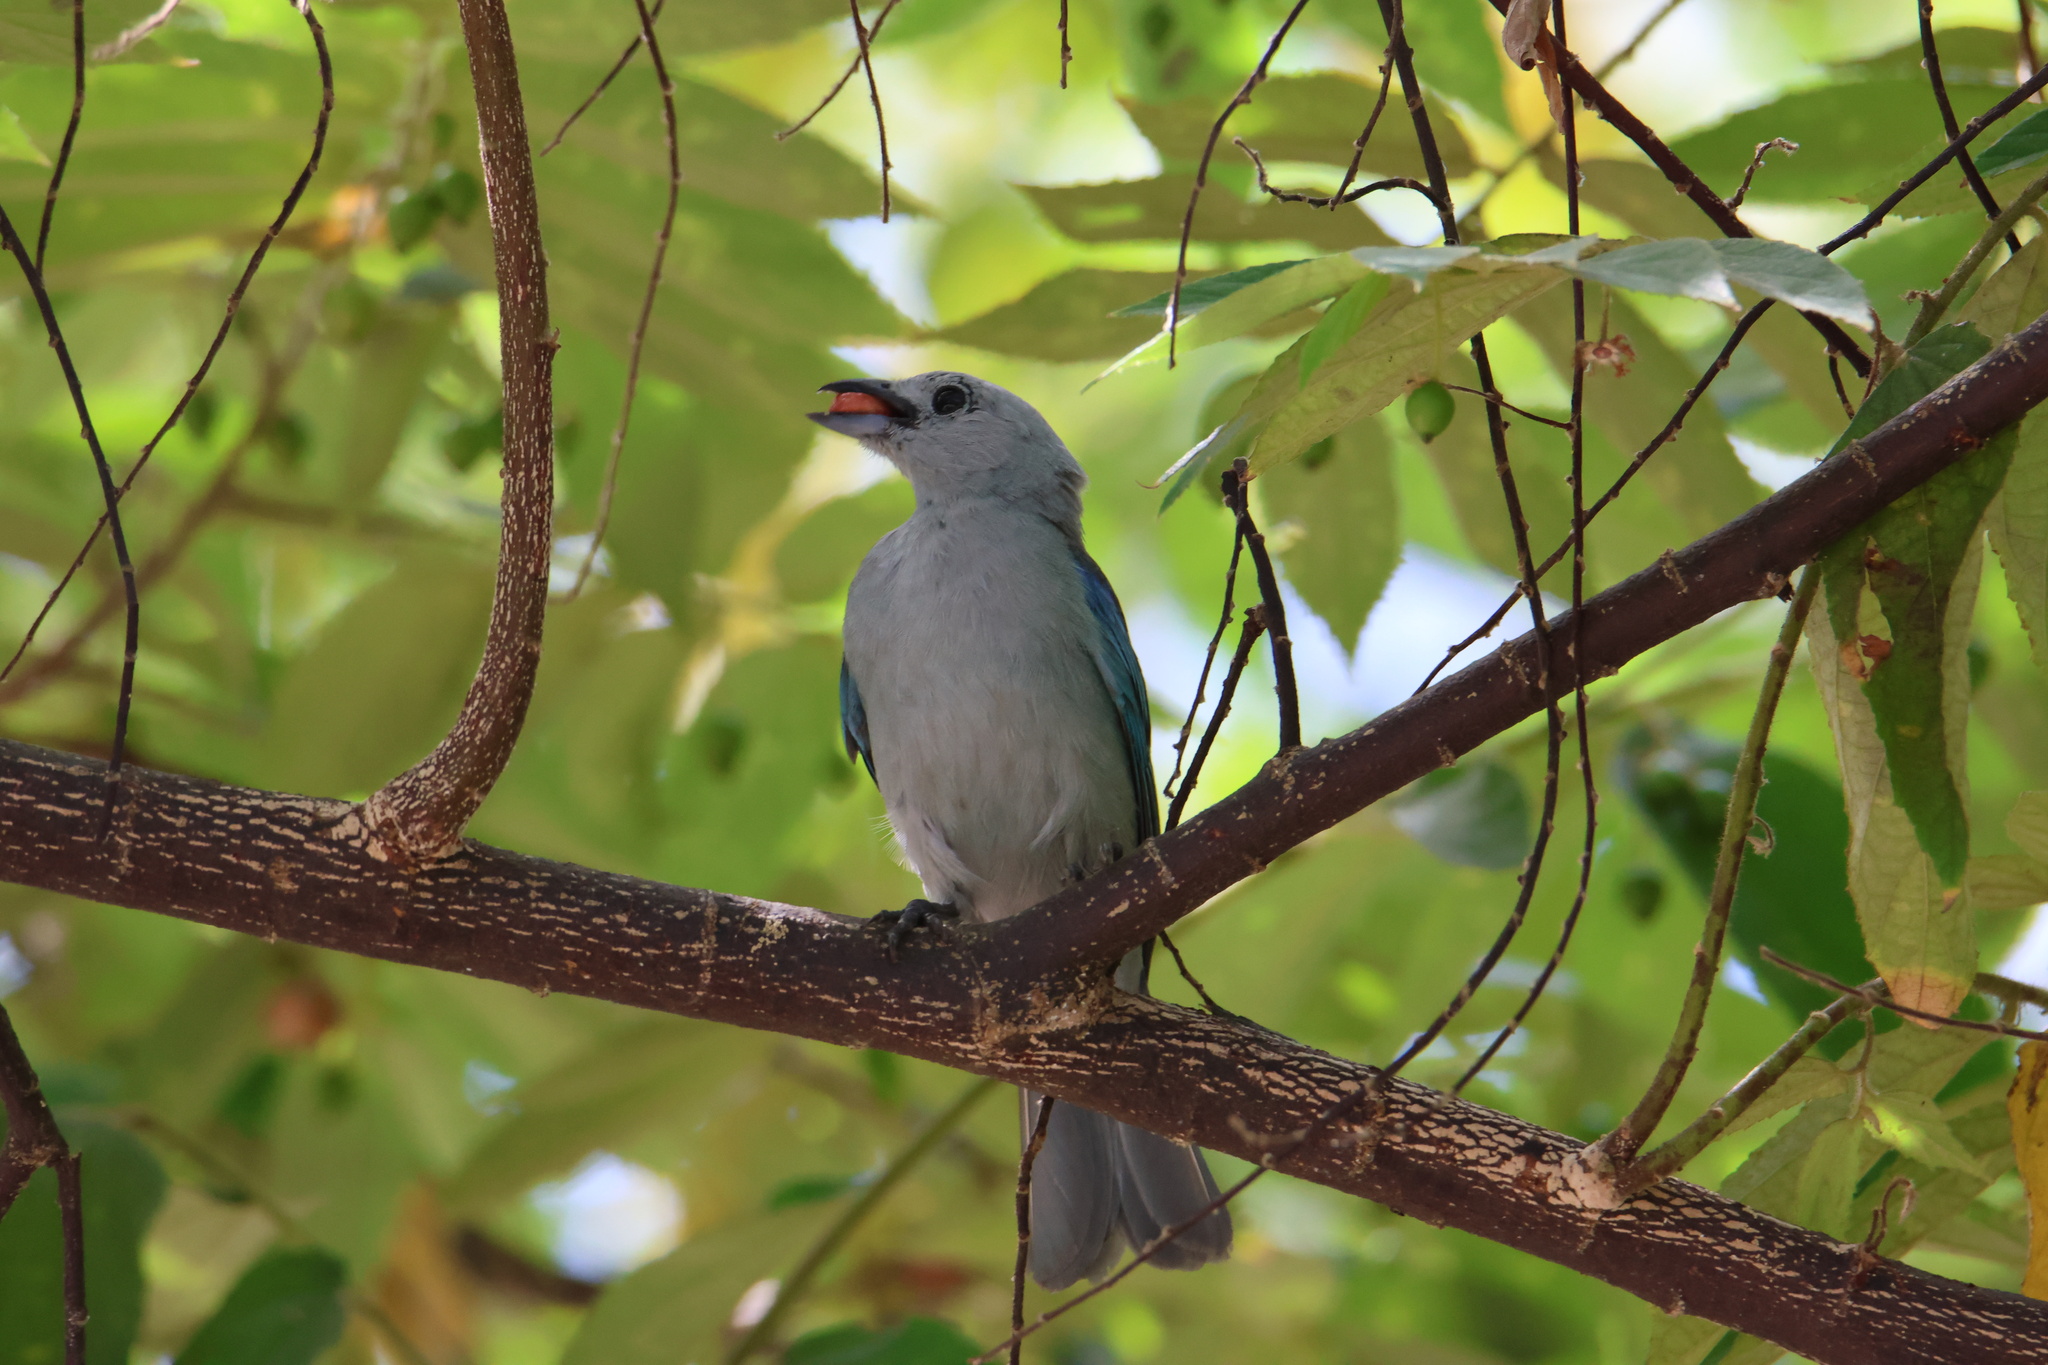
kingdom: Animalia
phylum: Chordata
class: Aves
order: Passeriformes
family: Thraupidae
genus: Thraupis
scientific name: Thraupis episcopus
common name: Blue-grey tanager
